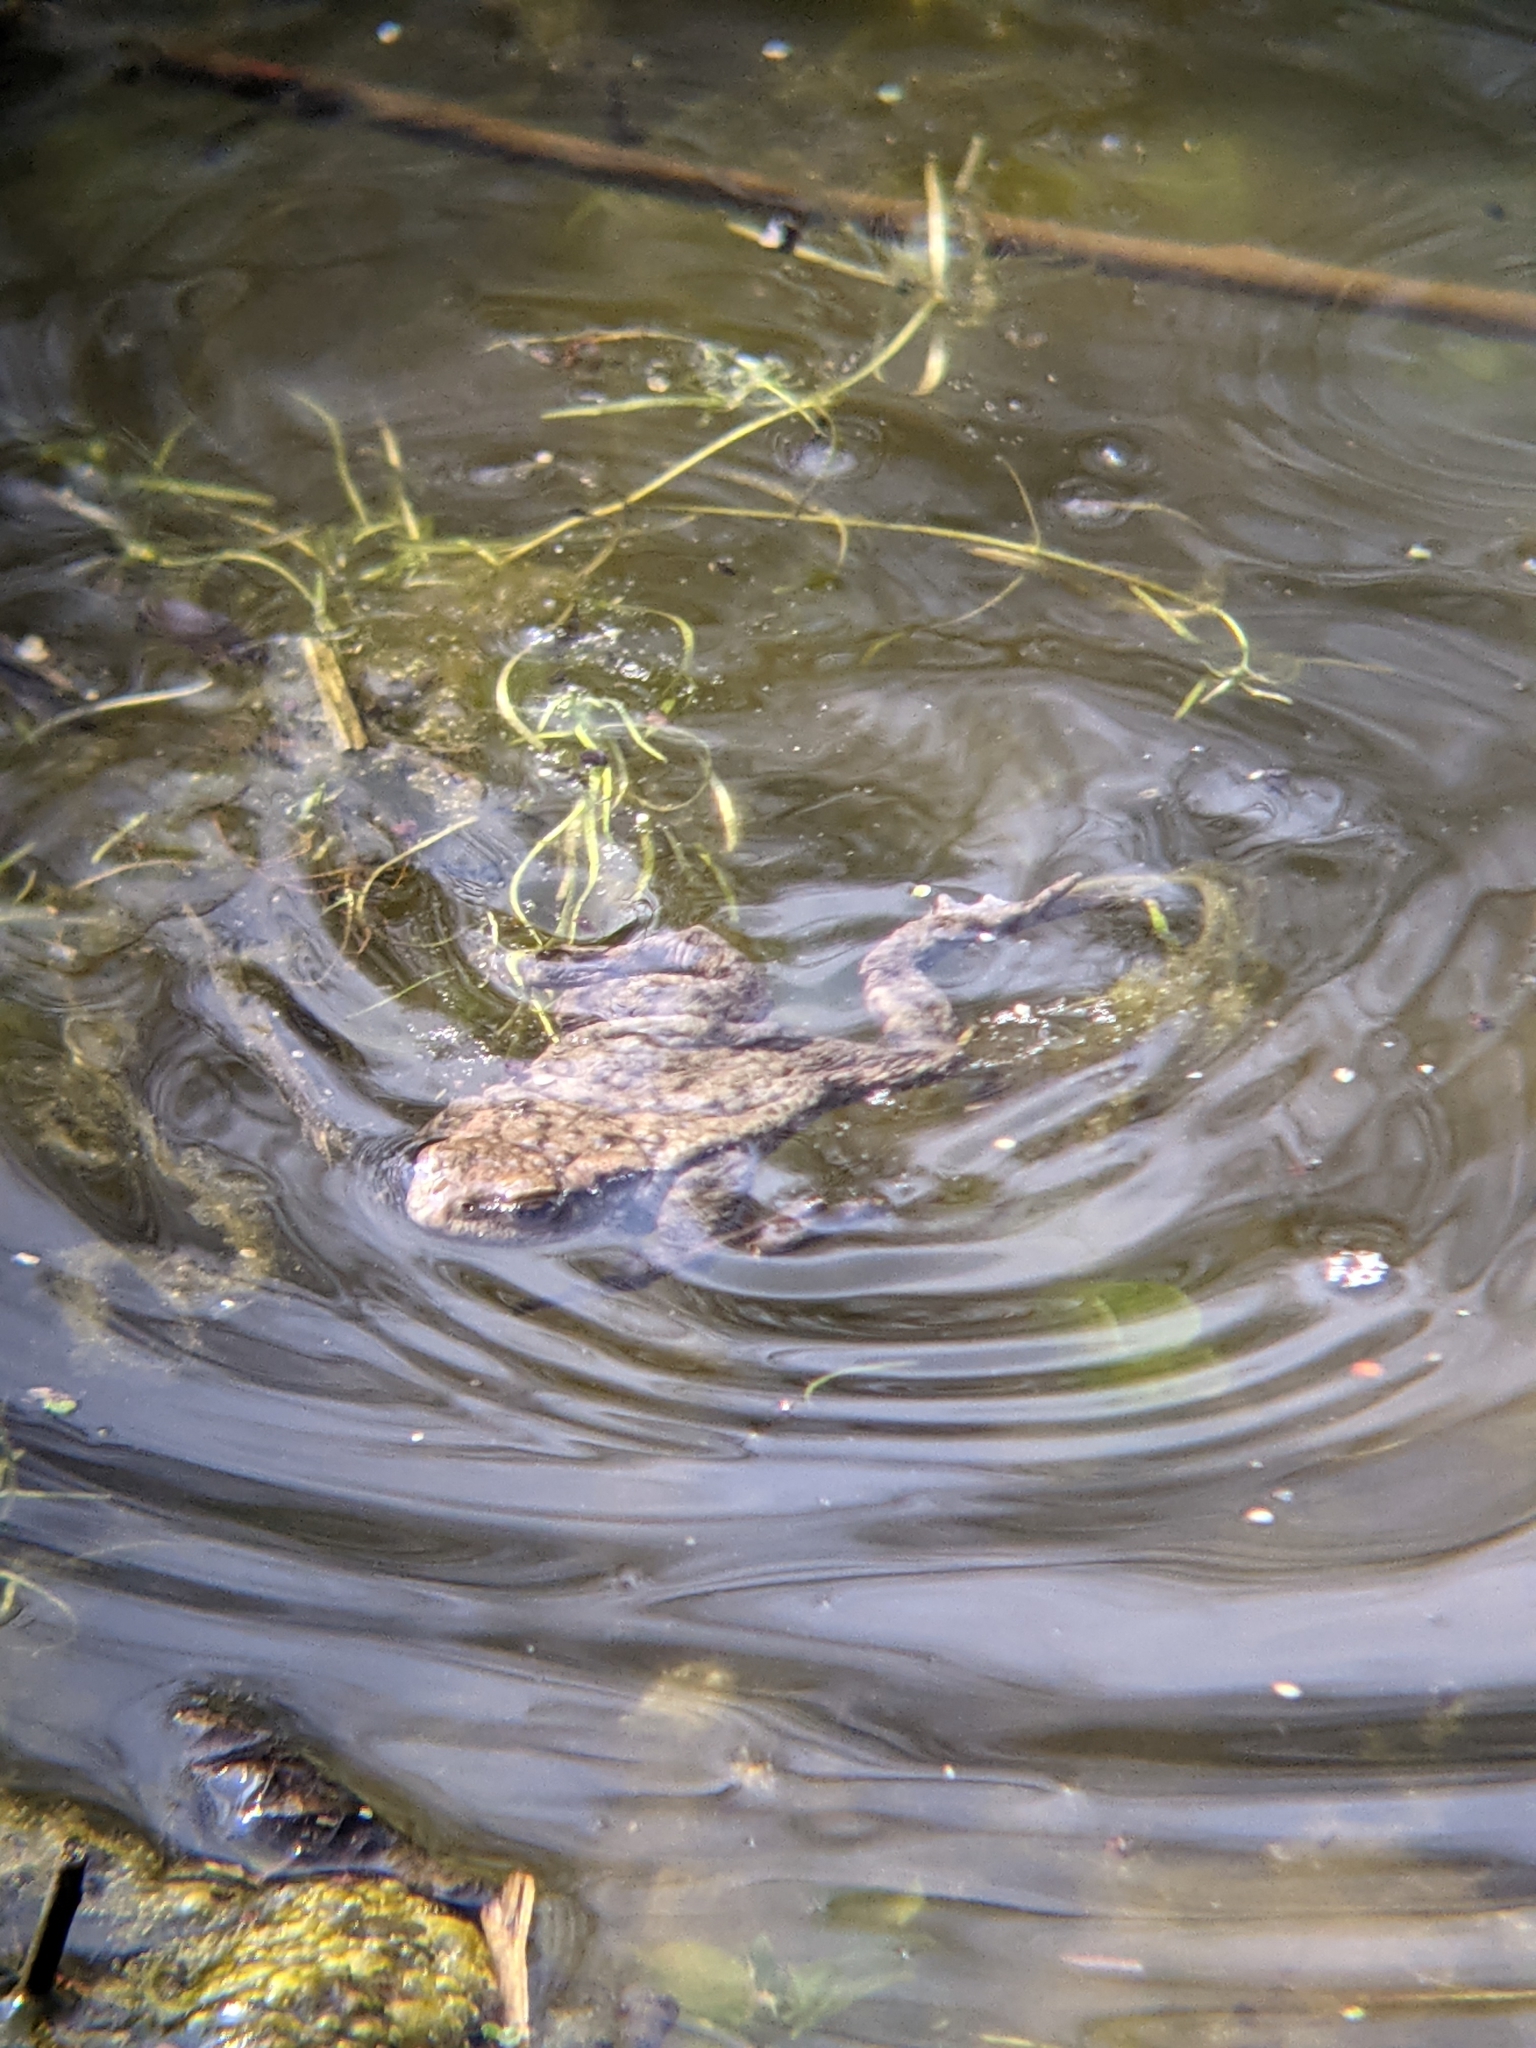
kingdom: Animalia
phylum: Chordata
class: Amphibia
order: Anura
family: Bufonidae
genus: Bufo
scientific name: Bufo bufo
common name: Common toad
